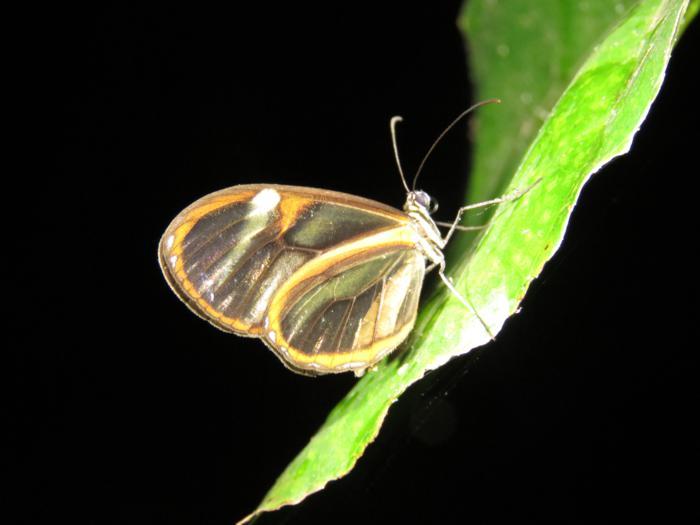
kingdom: Animalia
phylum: Arthropoda
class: Insecta
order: Lepidoptera
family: Nymphalidae
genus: Pteronymia
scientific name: Pteronymia sao
